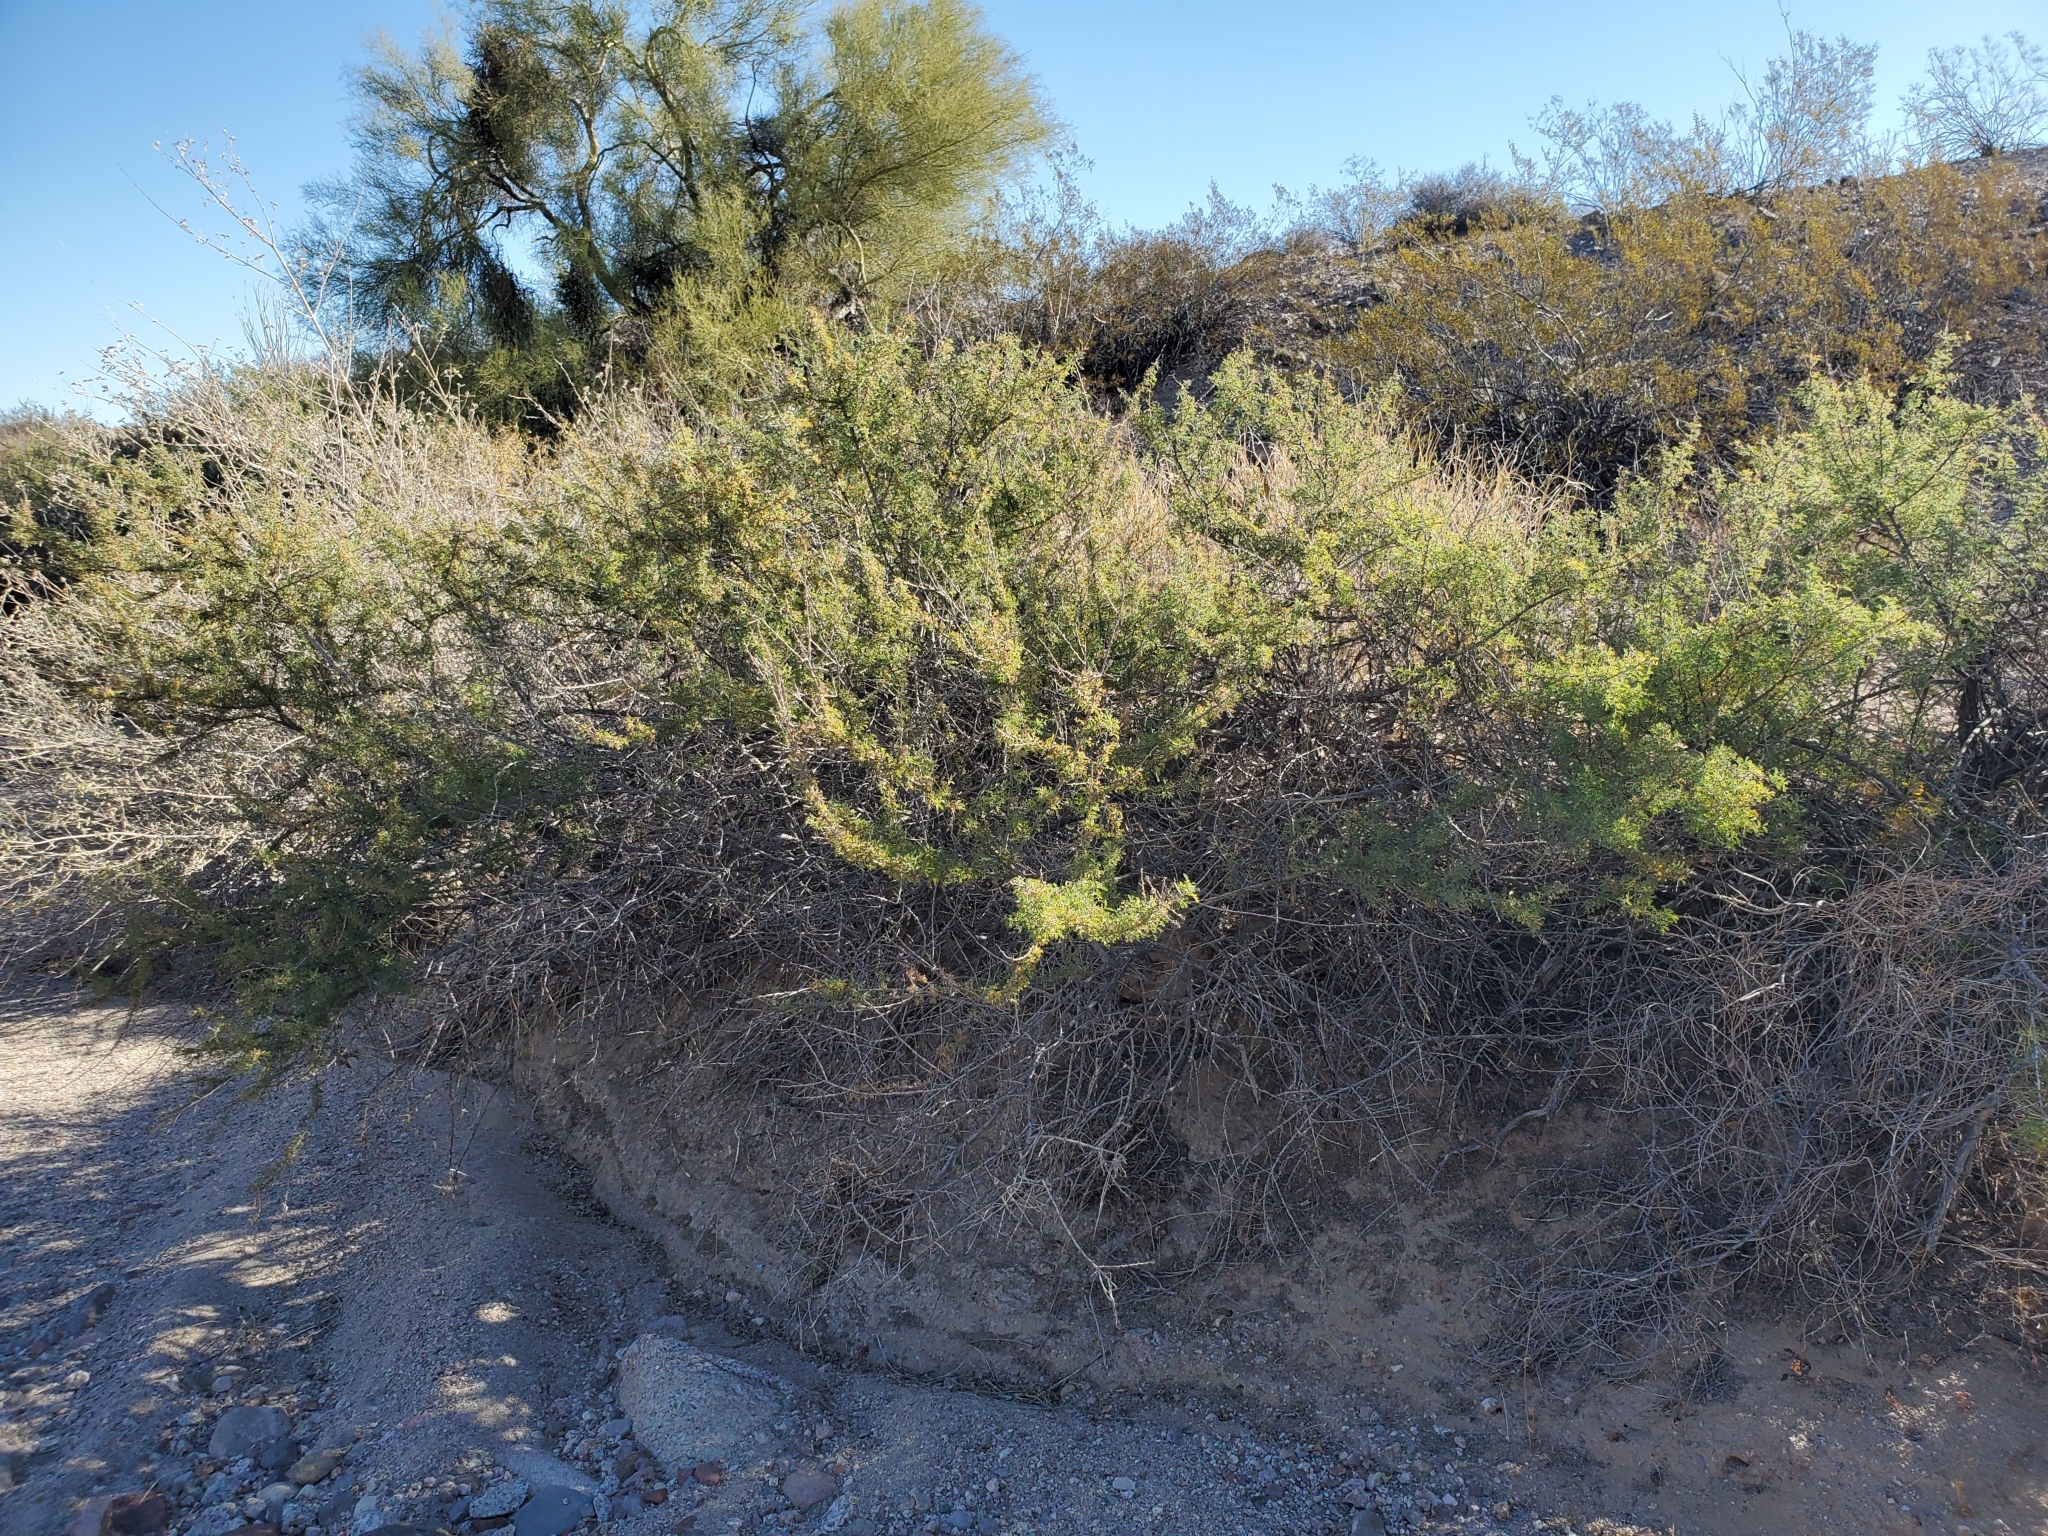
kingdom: Plantae
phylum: Tracheophyta
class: Magnoliopsida
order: Fabales
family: Fabaceae
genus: Senegalia
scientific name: Senegalia greggii
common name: Texas-mimosa
